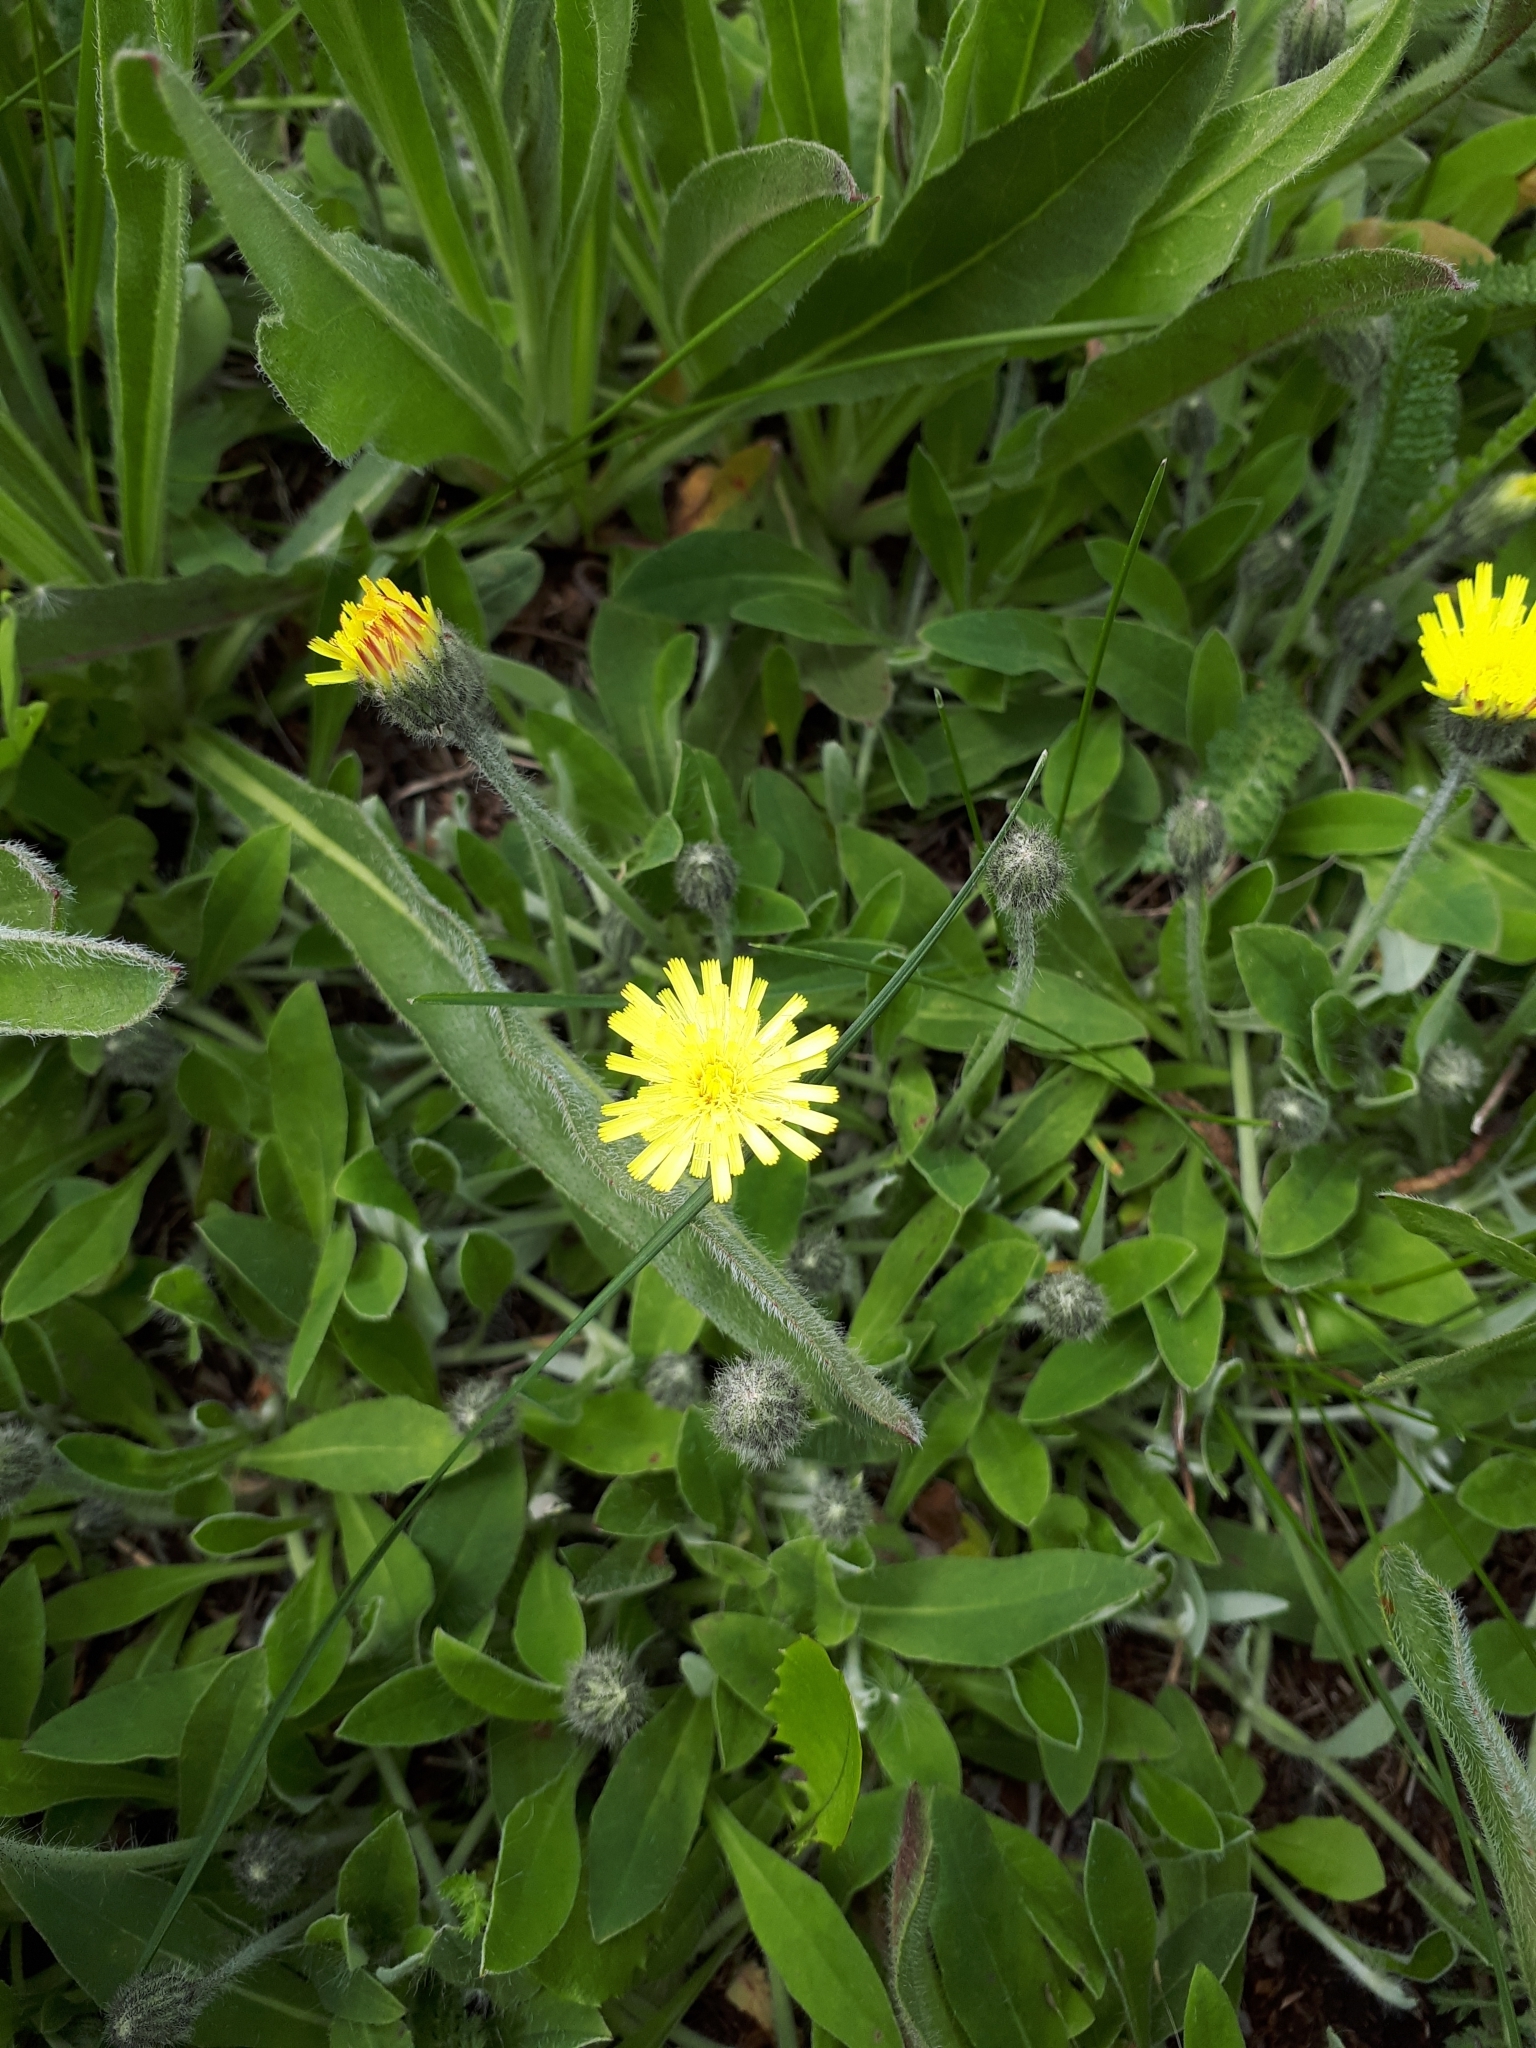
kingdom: Plantae
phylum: Tracheophyta
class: Magnoliopsida
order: Asterales
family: Asteraceae
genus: Pilosella
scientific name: Pilosella officinarum
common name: Mouse-ear hawkweed
